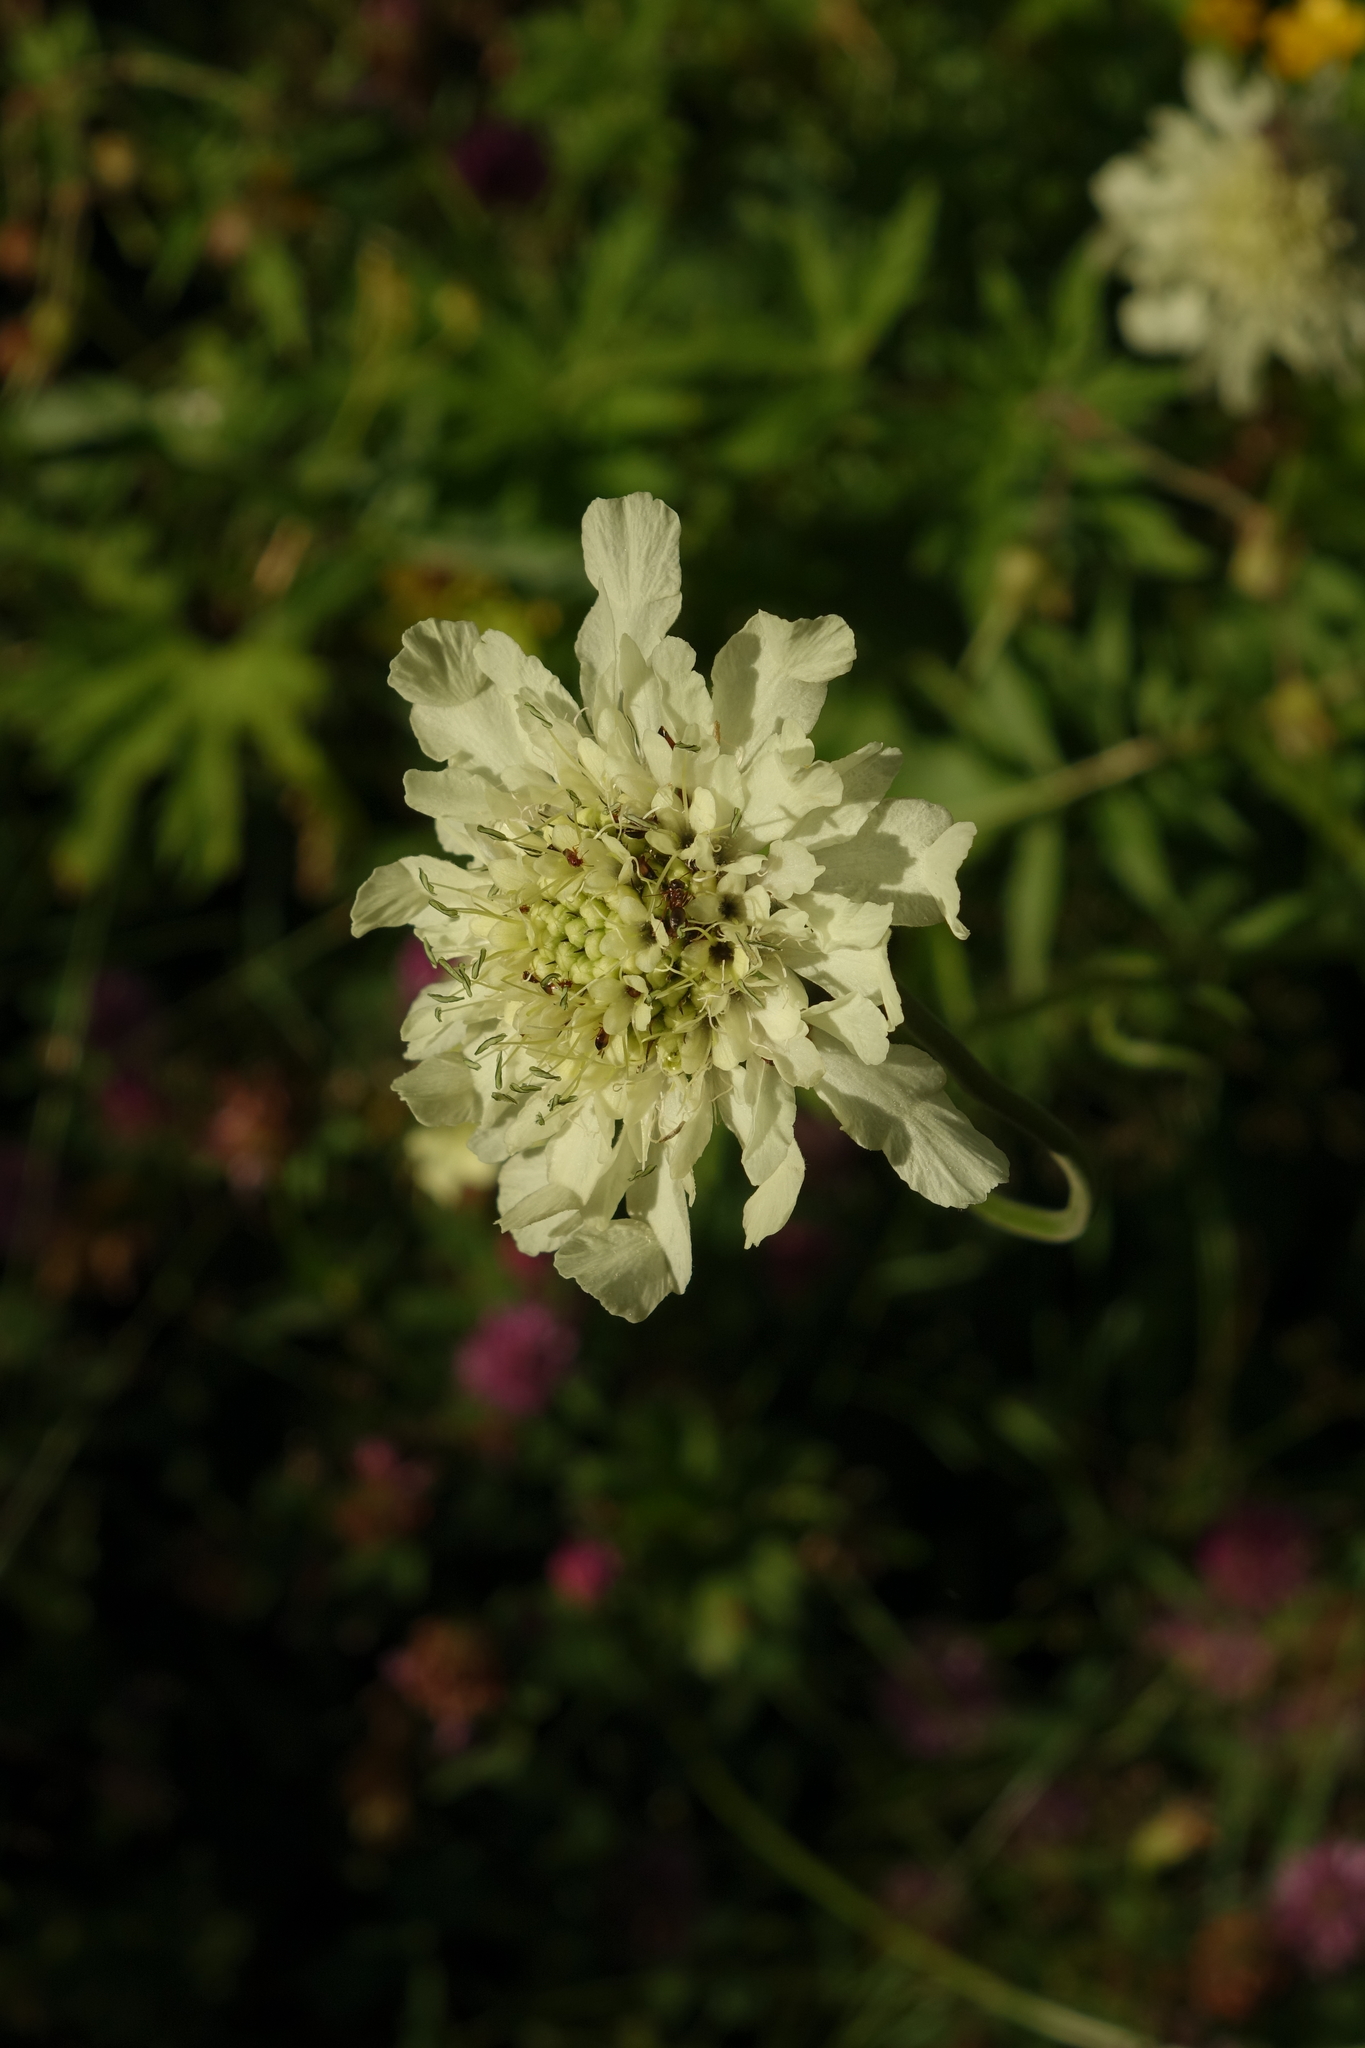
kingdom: Plantae
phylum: Tracheophyta
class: Magnoliopsida
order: Dipsacales
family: Caprifoliaceae
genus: Cephalaria
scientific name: Cephalaria gigantea
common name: Tatarian cephalaria
